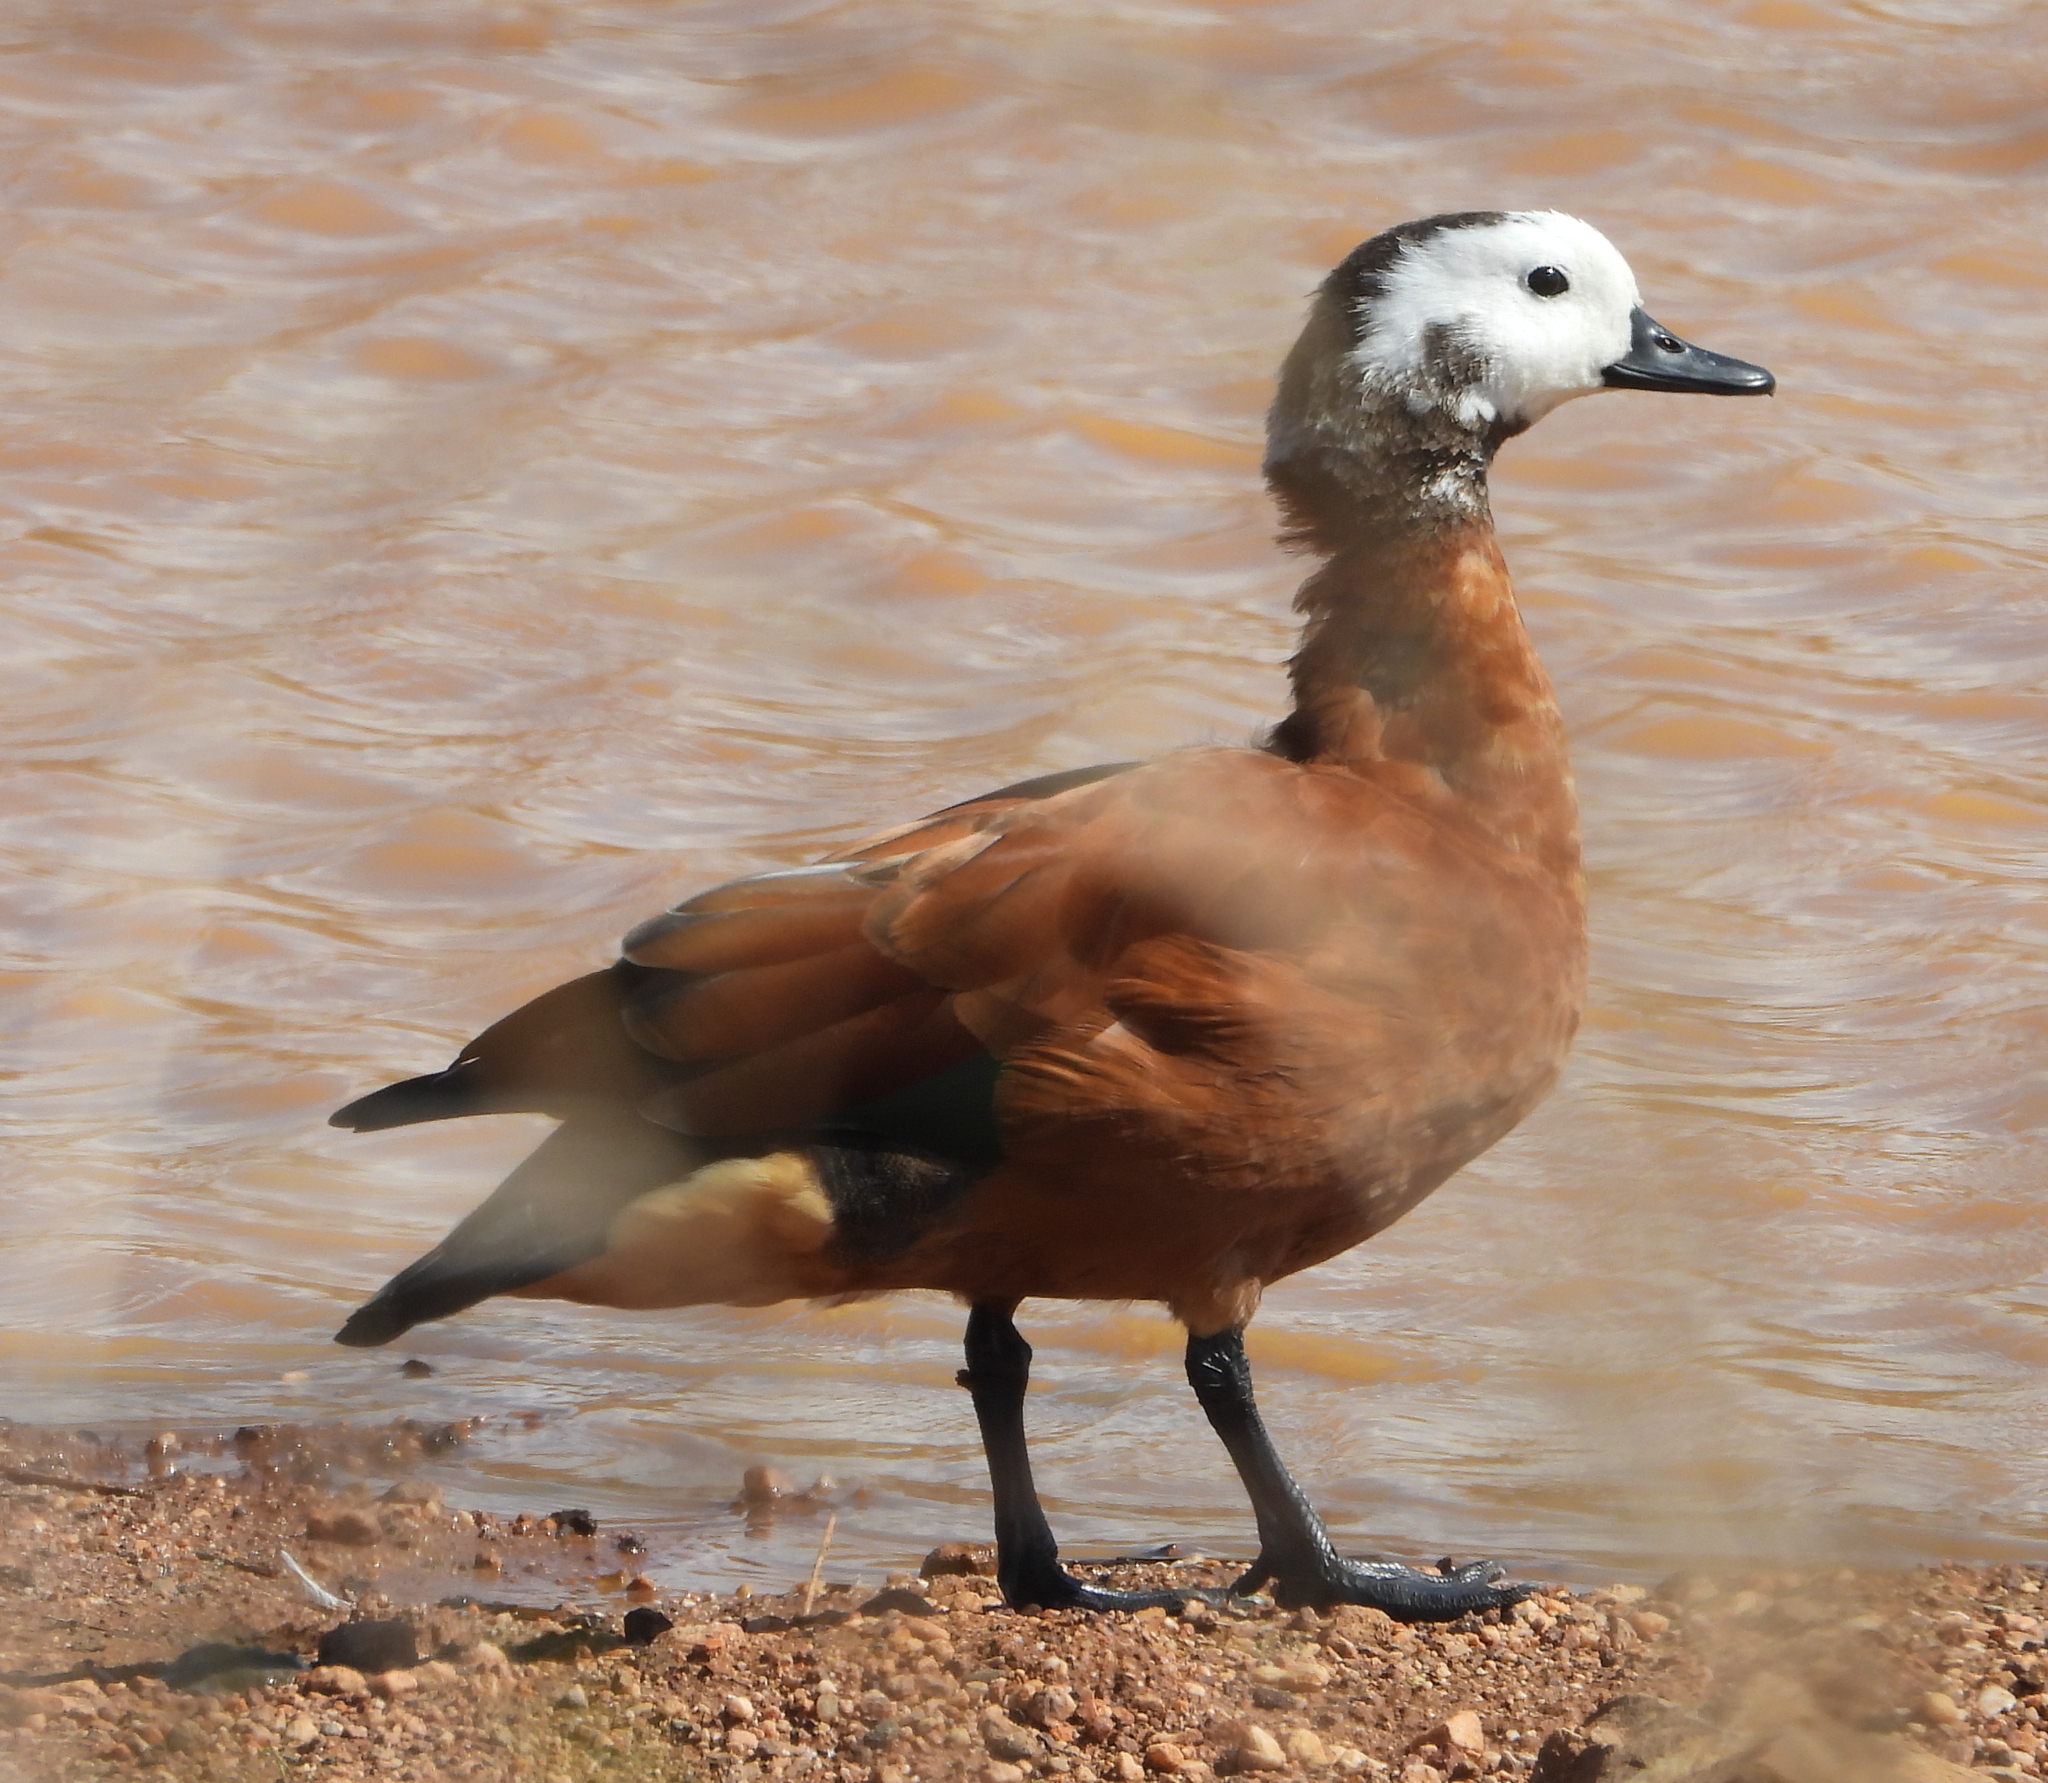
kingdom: Animalia
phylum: Chordata
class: Aves
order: Anseriformes
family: Anatidae
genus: Tadorna
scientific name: Tadorna cana
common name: South african shelduck
